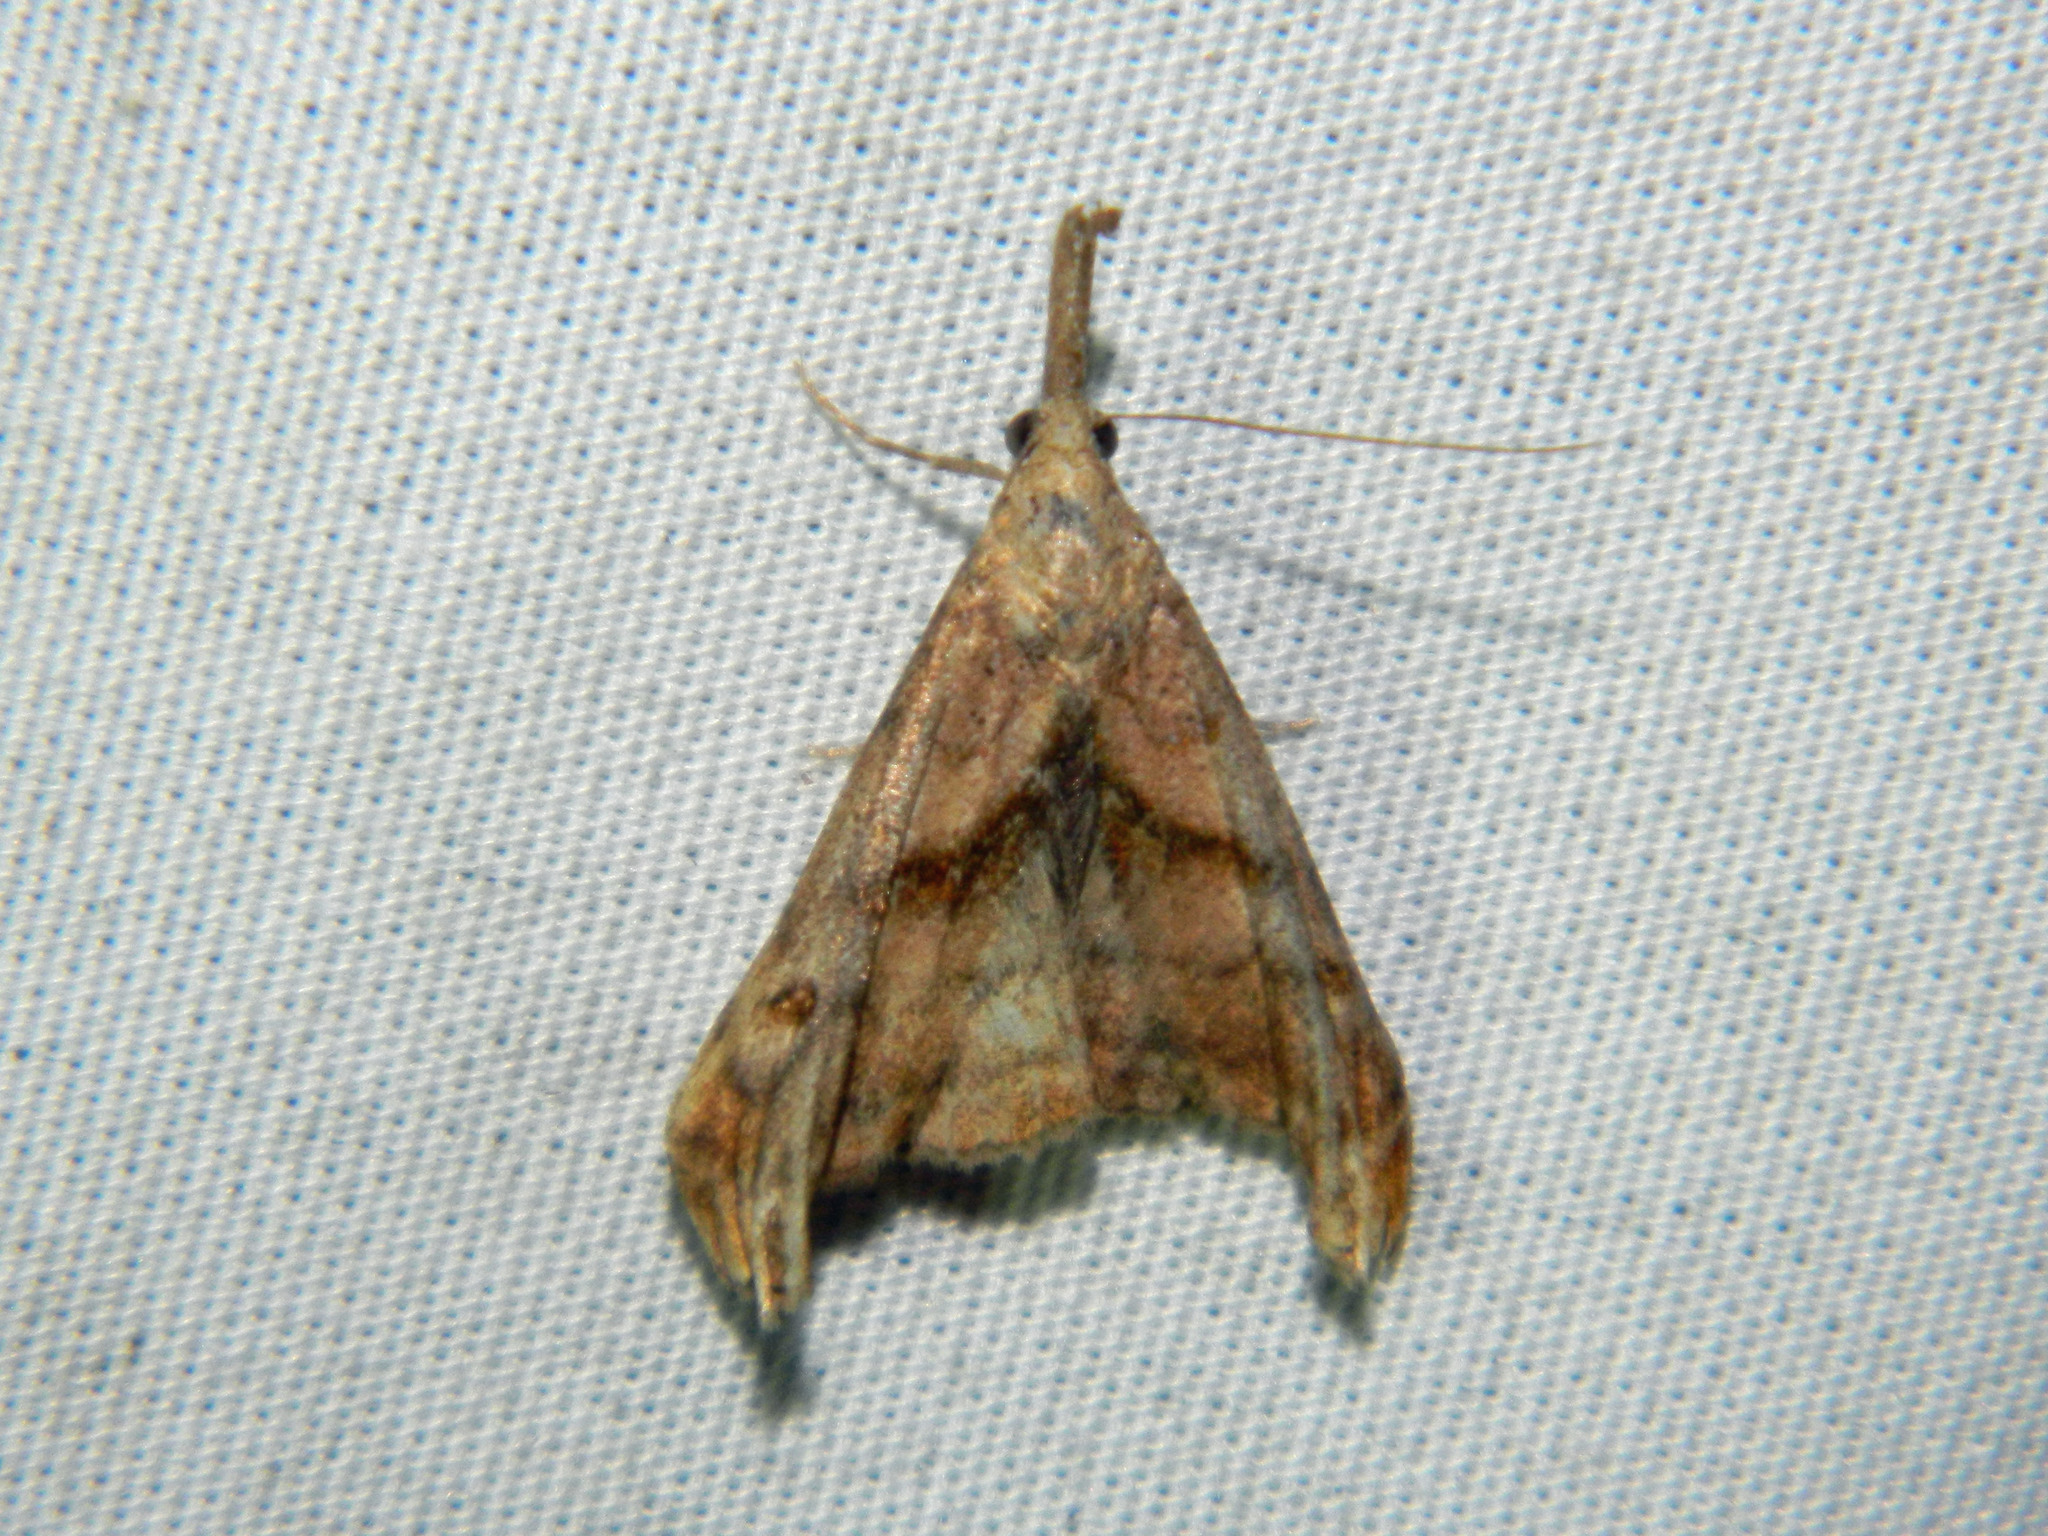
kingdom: Animalia
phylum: Arthropoda
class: Insecta
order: Lepidoptera
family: Erebidae
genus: Palthis
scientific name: Palthis angulalis
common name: Dark-spotted palthis moth
